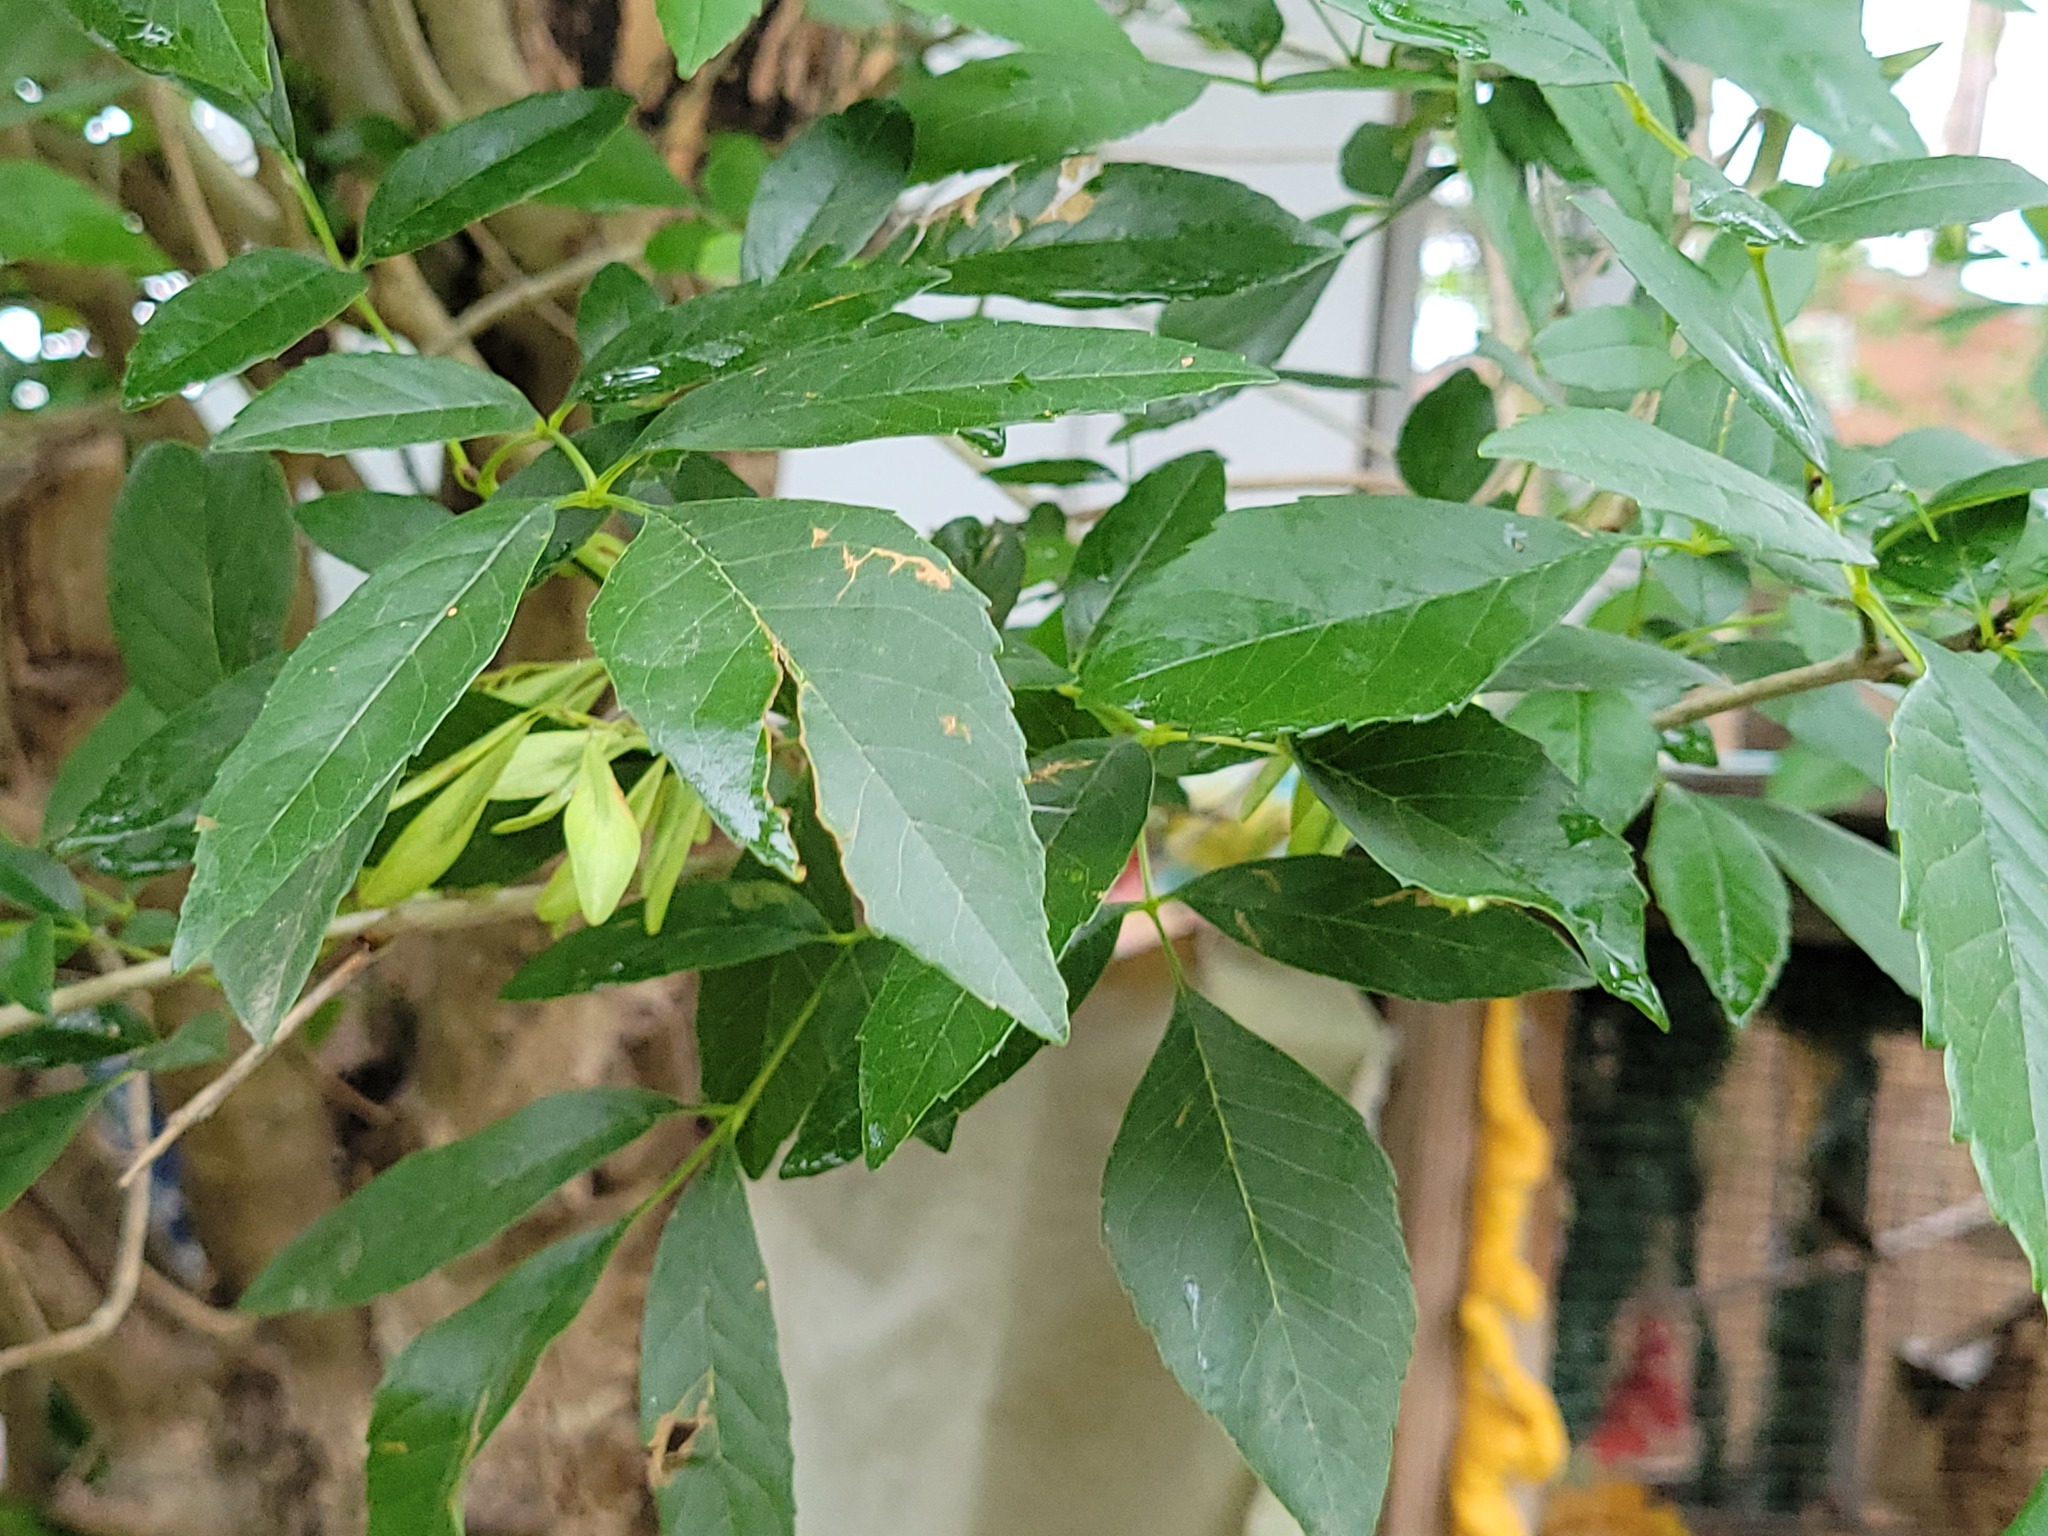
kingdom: Plantae
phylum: Tracheophyta
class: Magnoliopsida
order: Lamiales
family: Oleaceae
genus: Fraxinus
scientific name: Fraxinus berlandieriana
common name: Berlandier ash
